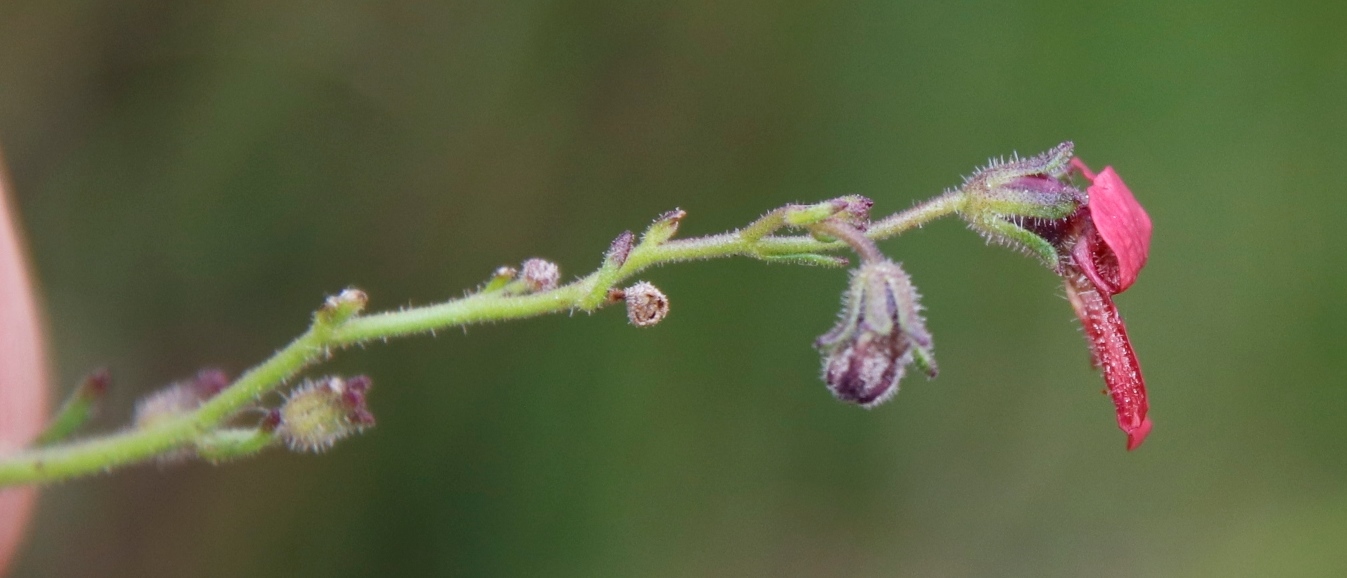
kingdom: Plantae
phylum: Tracheophyta
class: Magnoliopsida
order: Lamiales
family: Scrophulariaceae
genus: Jamesbrittenia
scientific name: Jamesbrittenia breviflora
